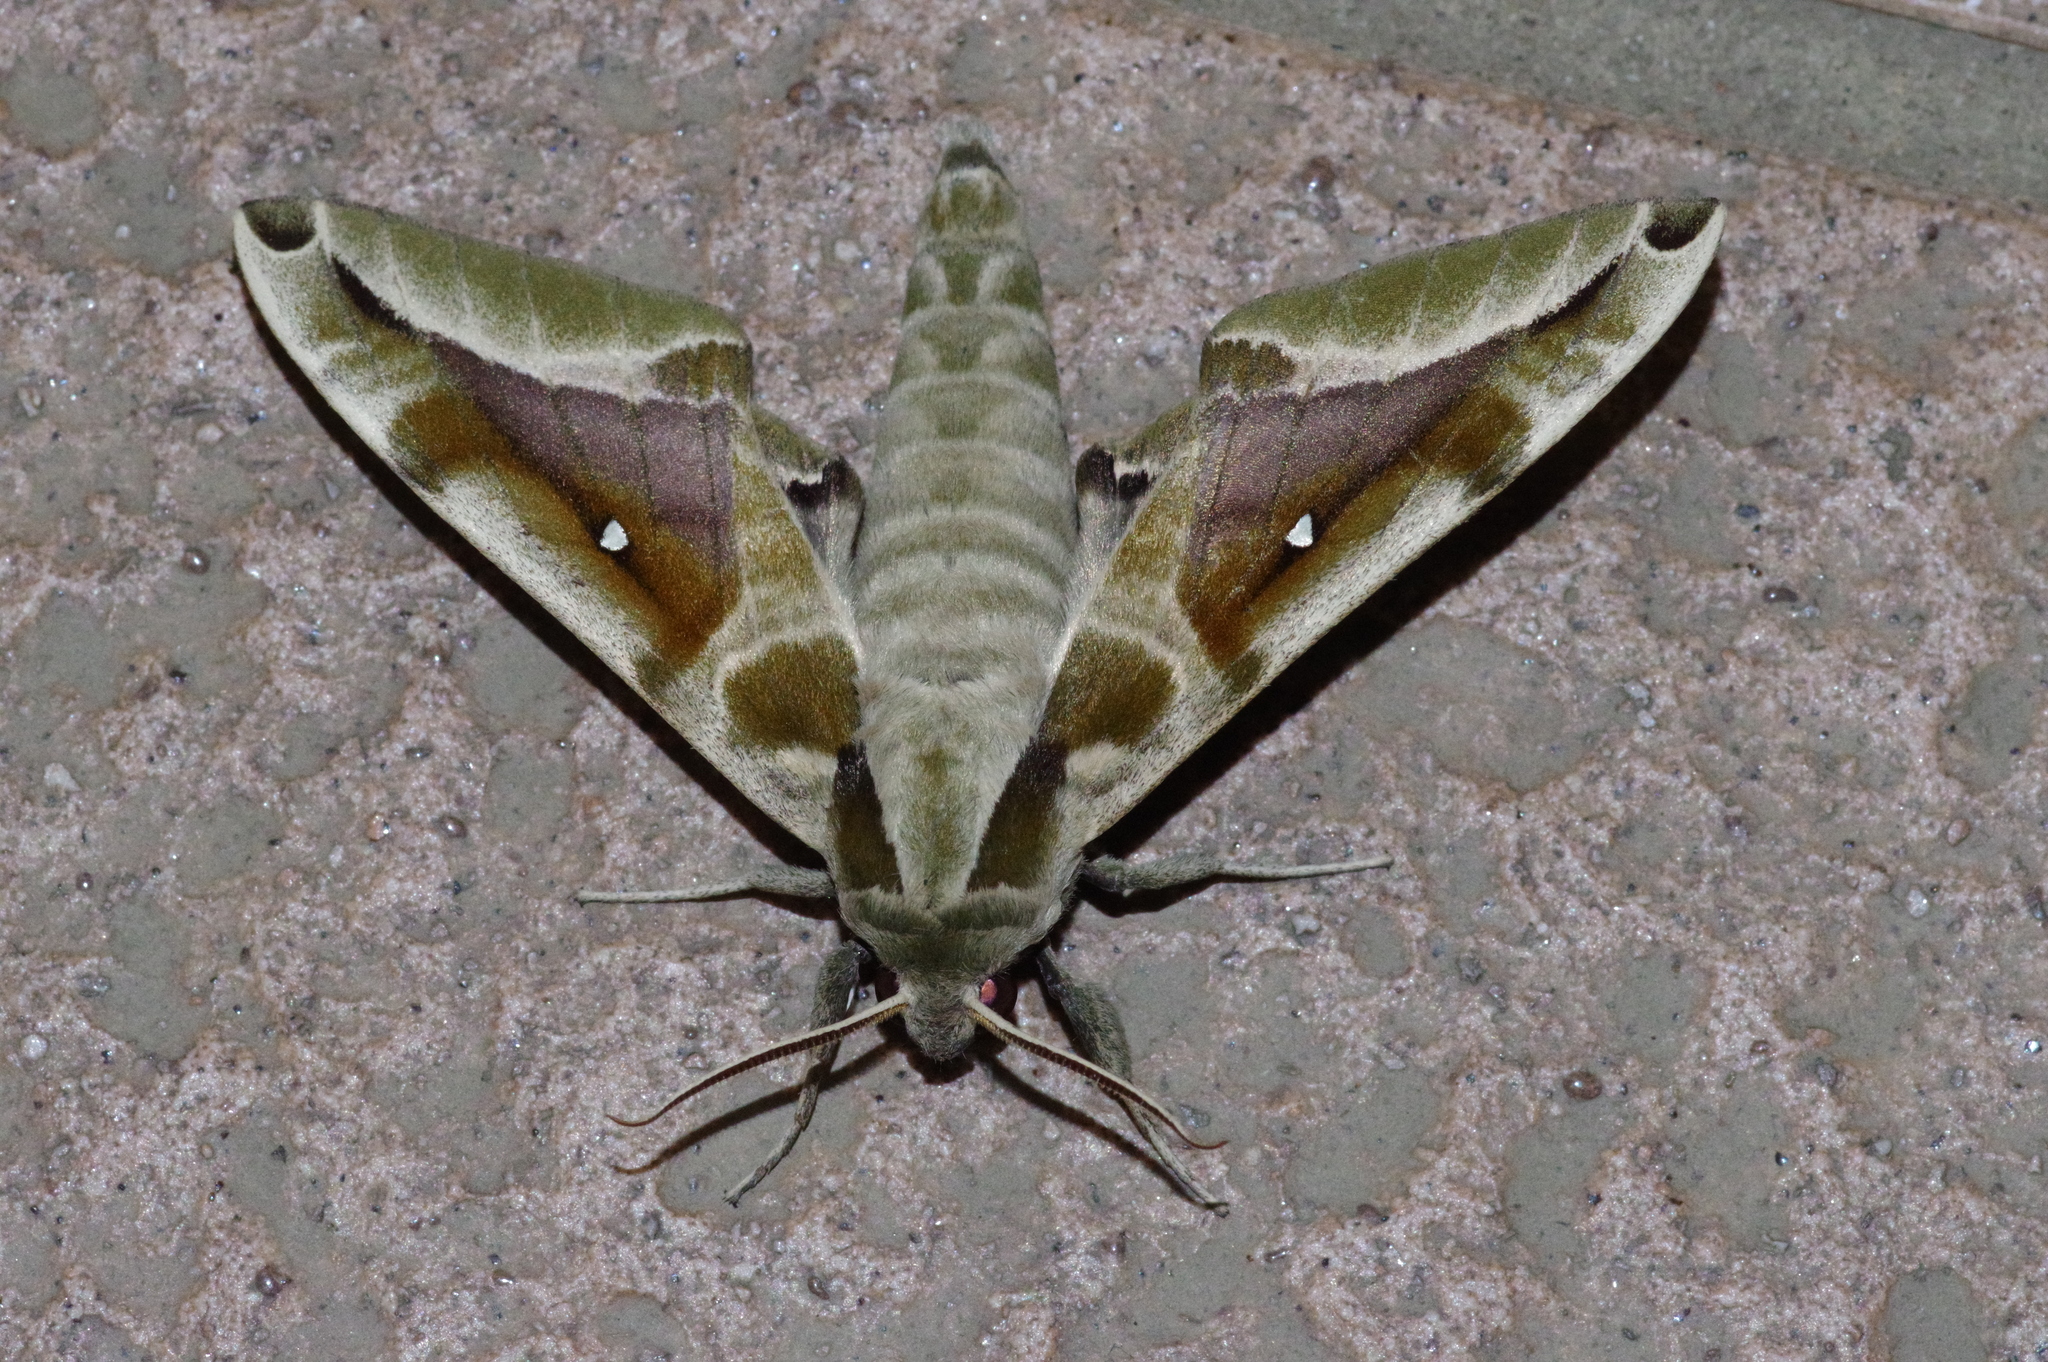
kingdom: Animalia
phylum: Arthropoda
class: Insecta
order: Lepidoptera
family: Sphingidae
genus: Parum
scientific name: Parum colligata
